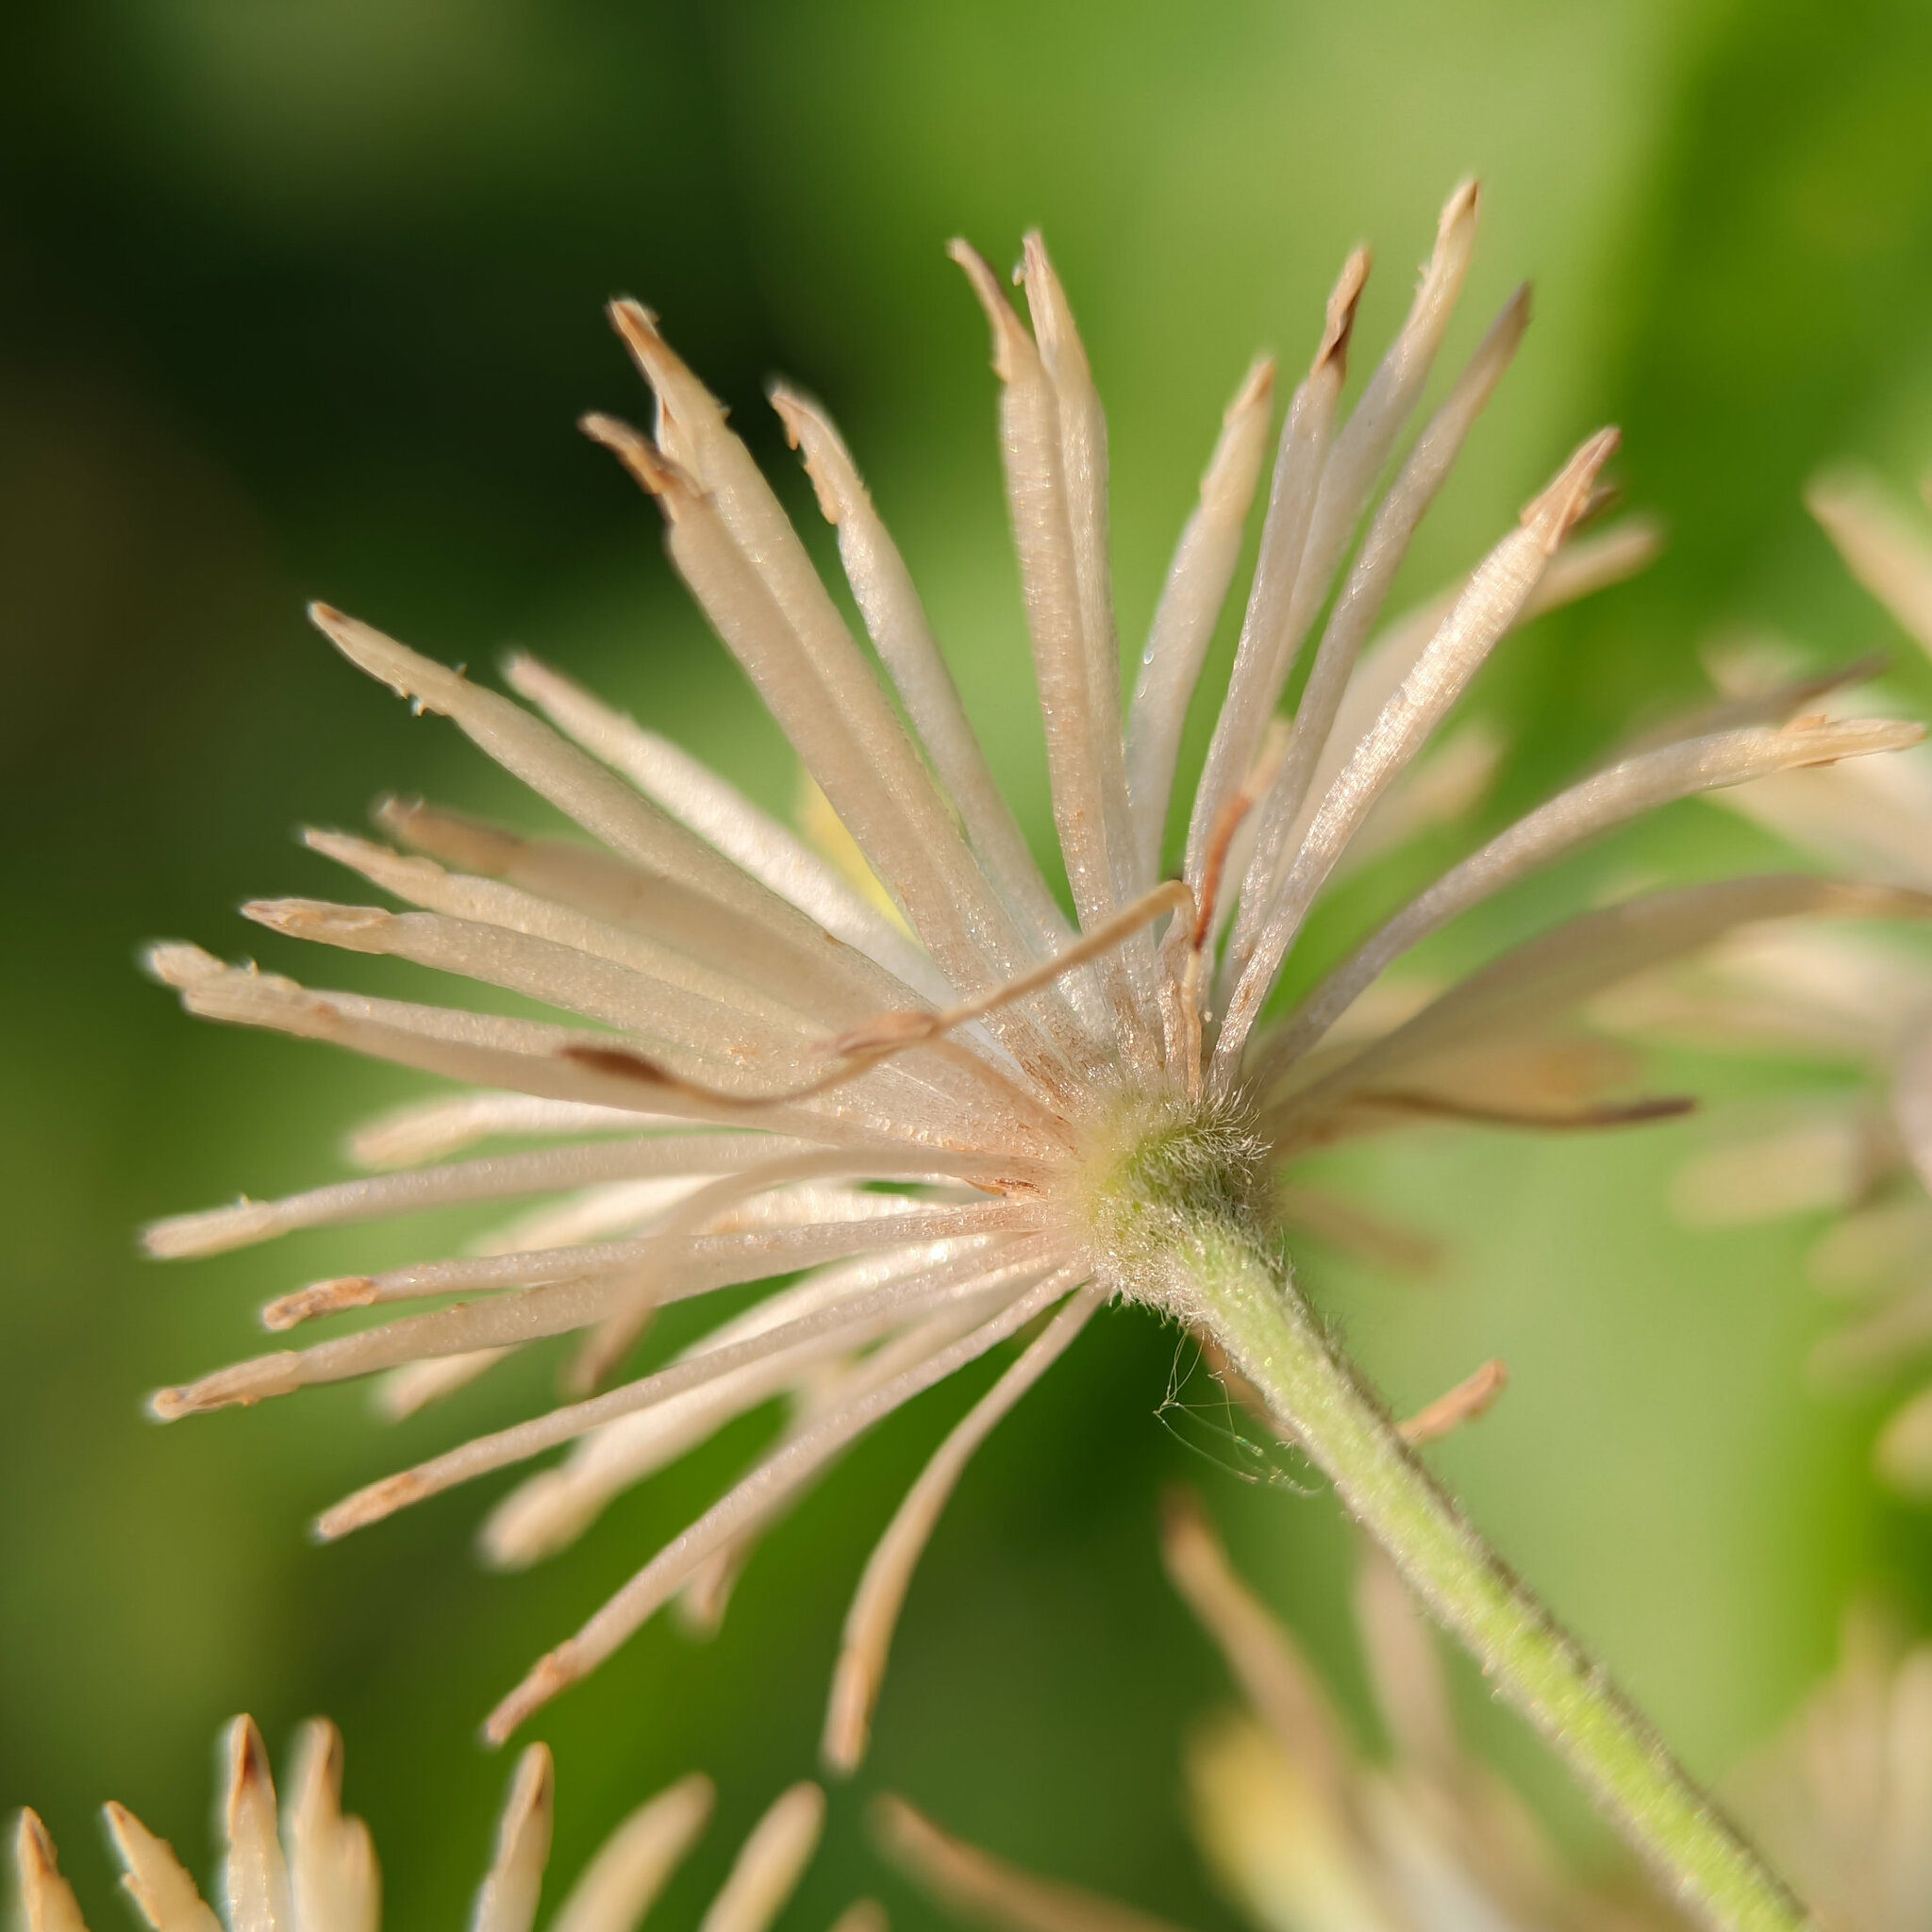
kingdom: Plantae
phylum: Tracheophyta
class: Magnoliopsida
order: Ranunculales
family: Ranunculaceae
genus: Clematis
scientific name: Clematis vitalba
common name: Evergreen clematis
